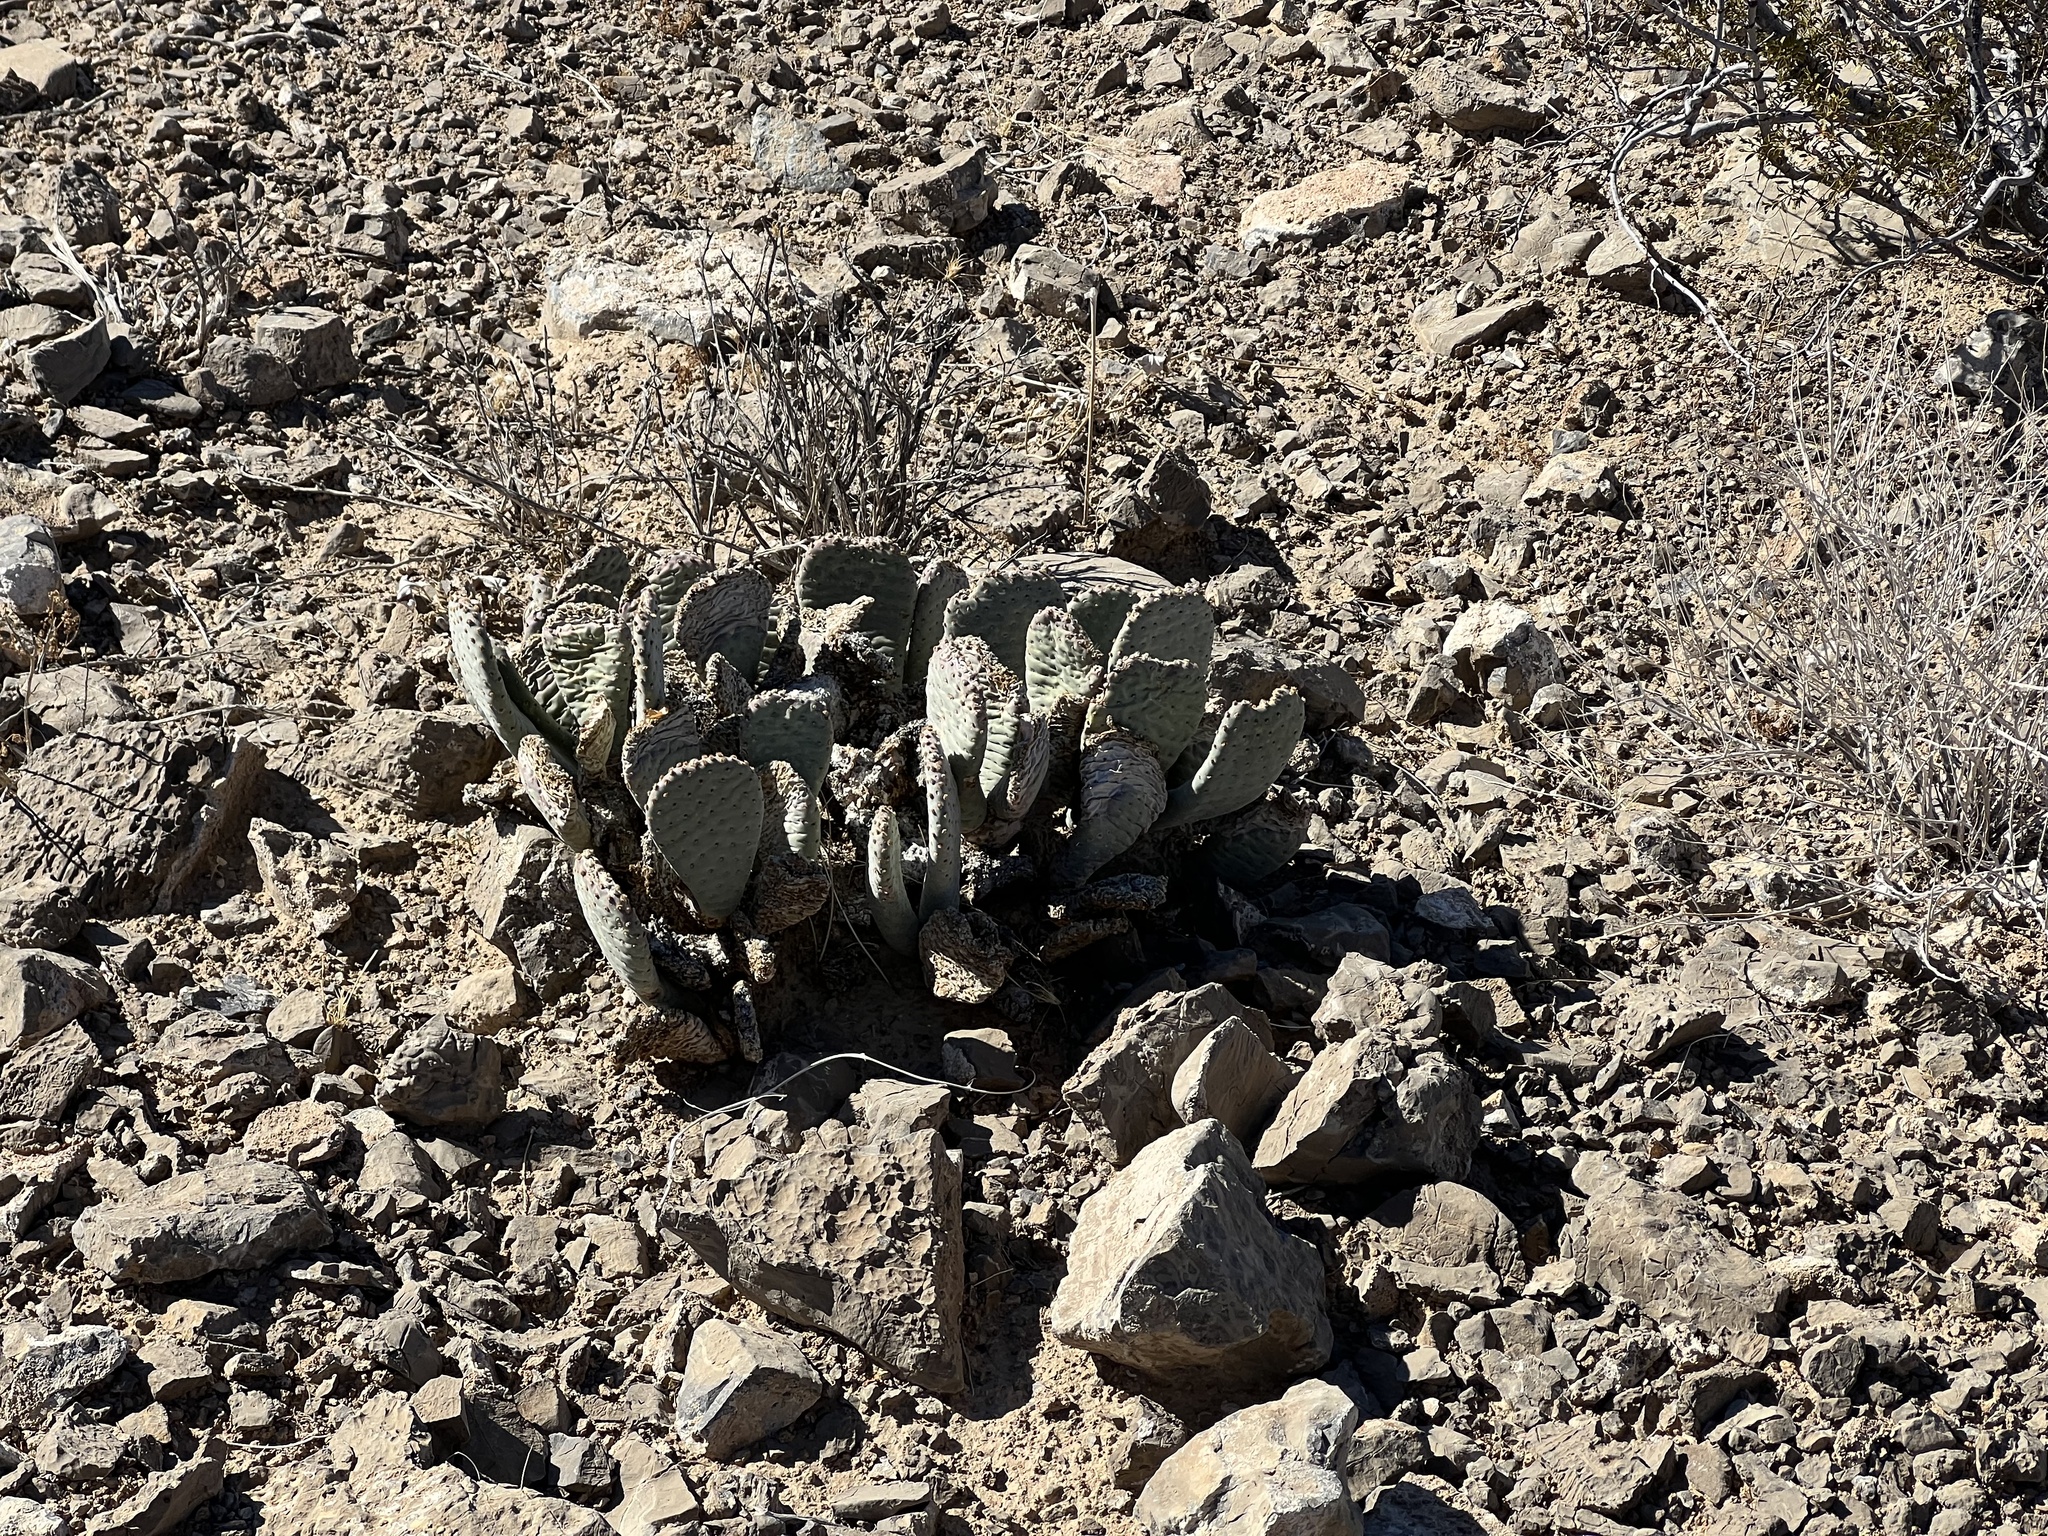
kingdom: Plantae
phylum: Tracheophyta
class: Magnoliopsida
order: Caryophyllales
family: Cactaceae
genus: Opuntia
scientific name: Opuntia basilaris
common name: Beavertail prickly-pear
